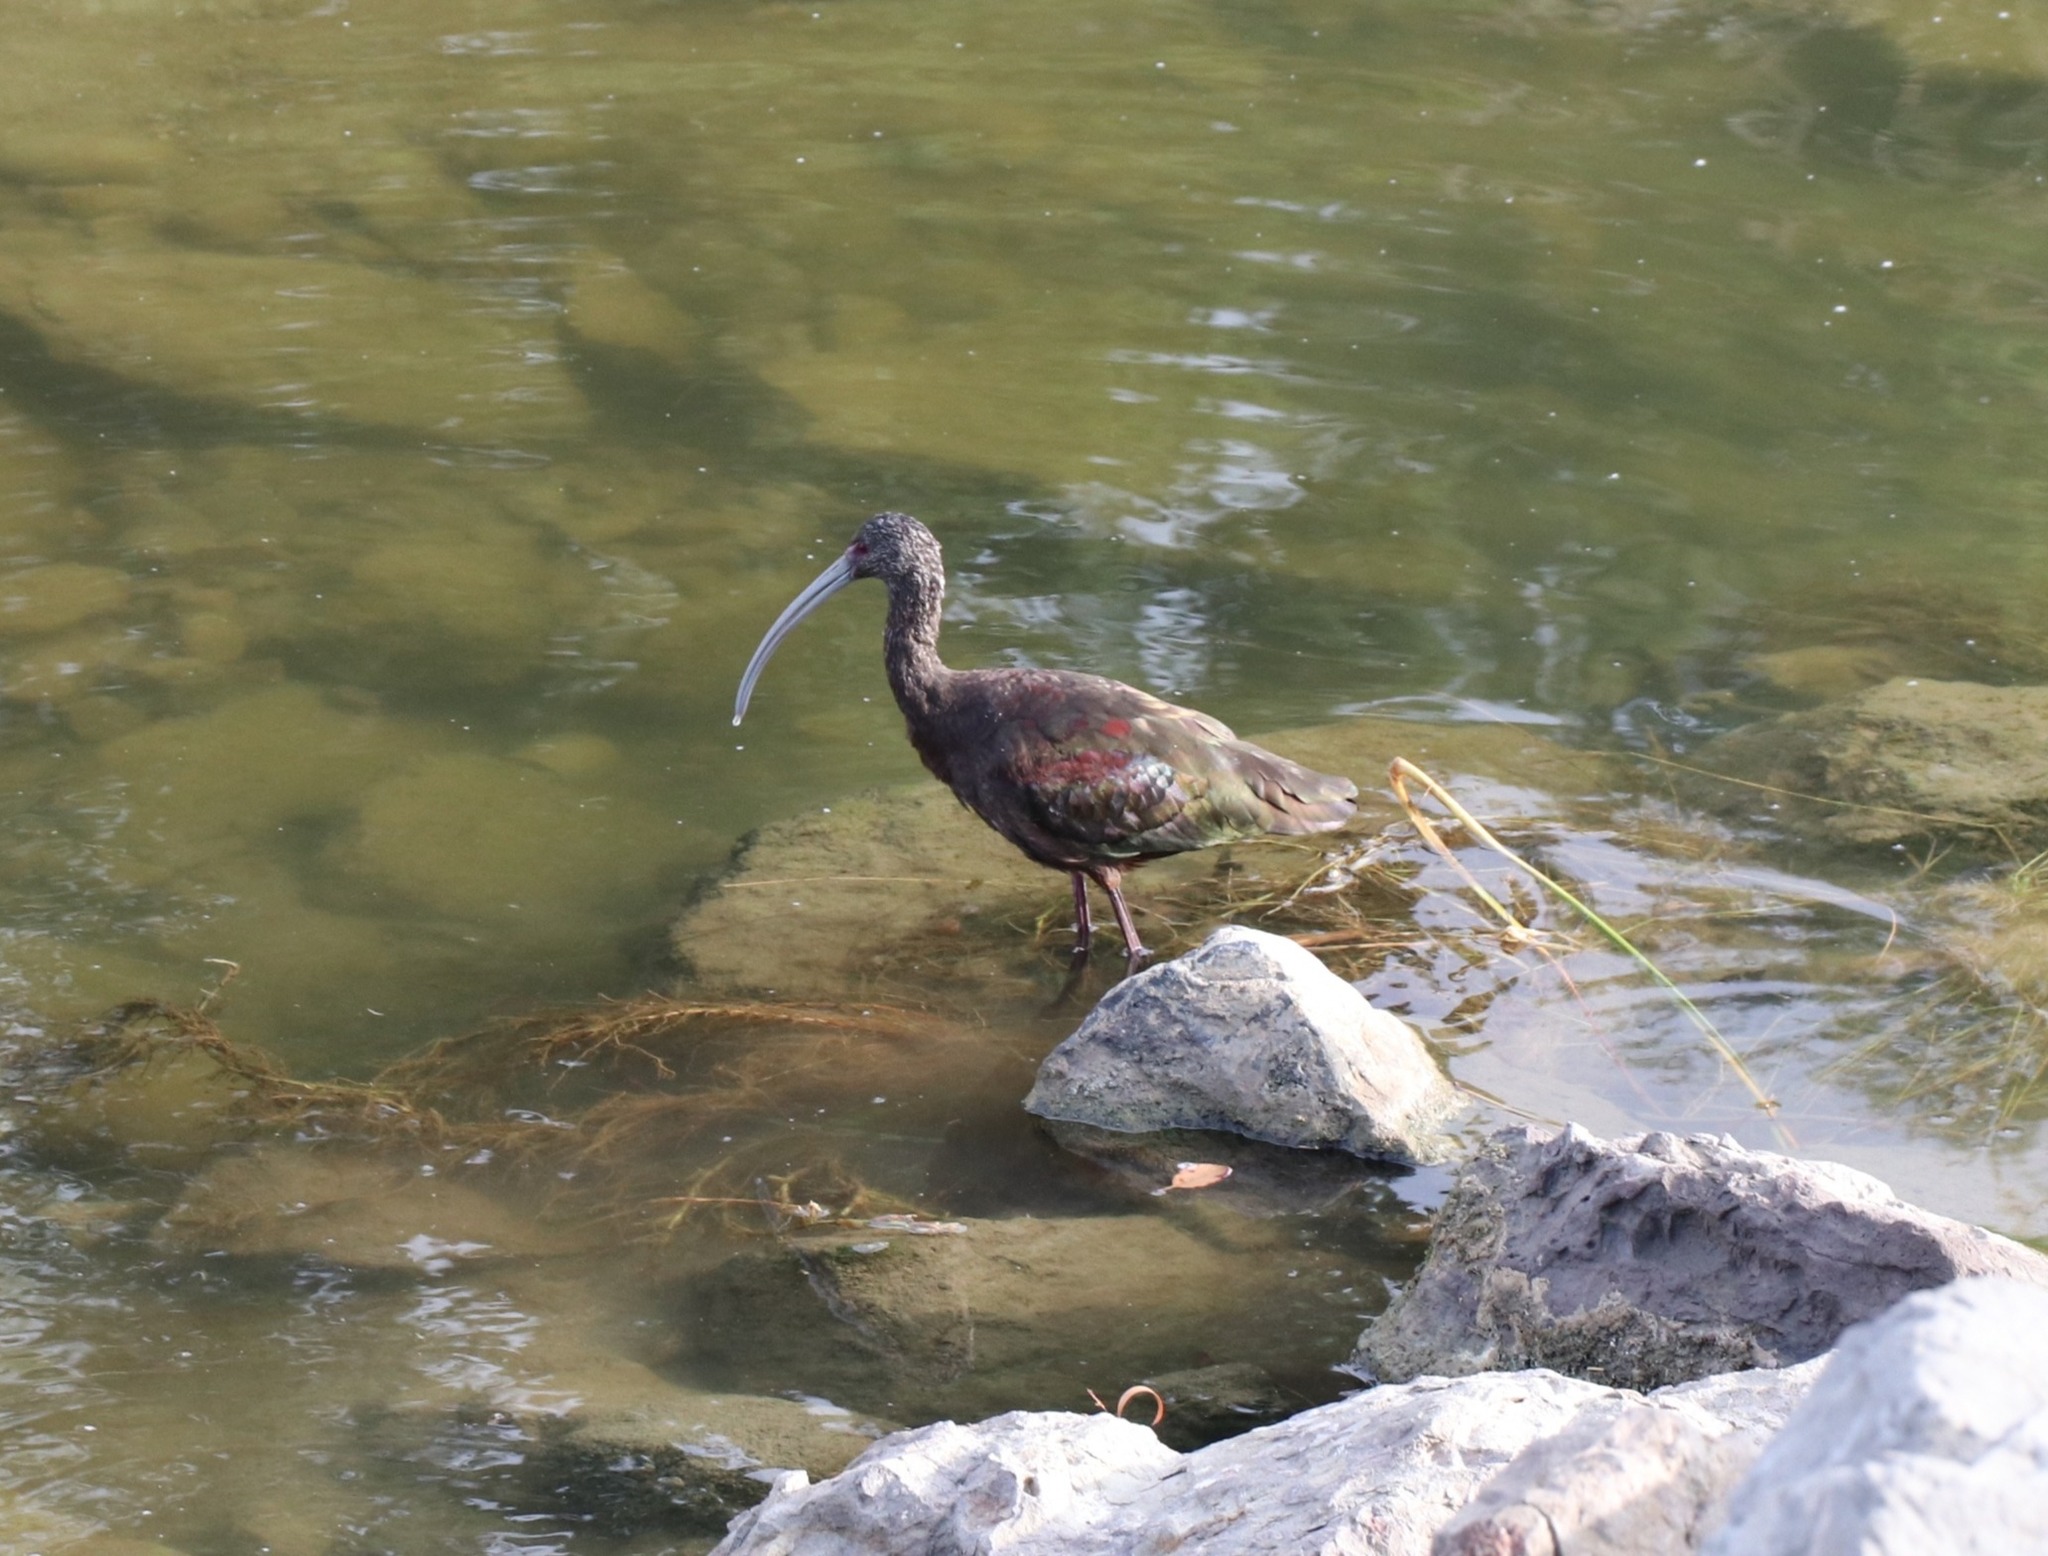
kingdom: Animalia
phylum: Chordata
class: Aves
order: Pelecaniformes
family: Threskiornithidae
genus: Plegadis
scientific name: Plegadis chihi
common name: White-faced ibis
